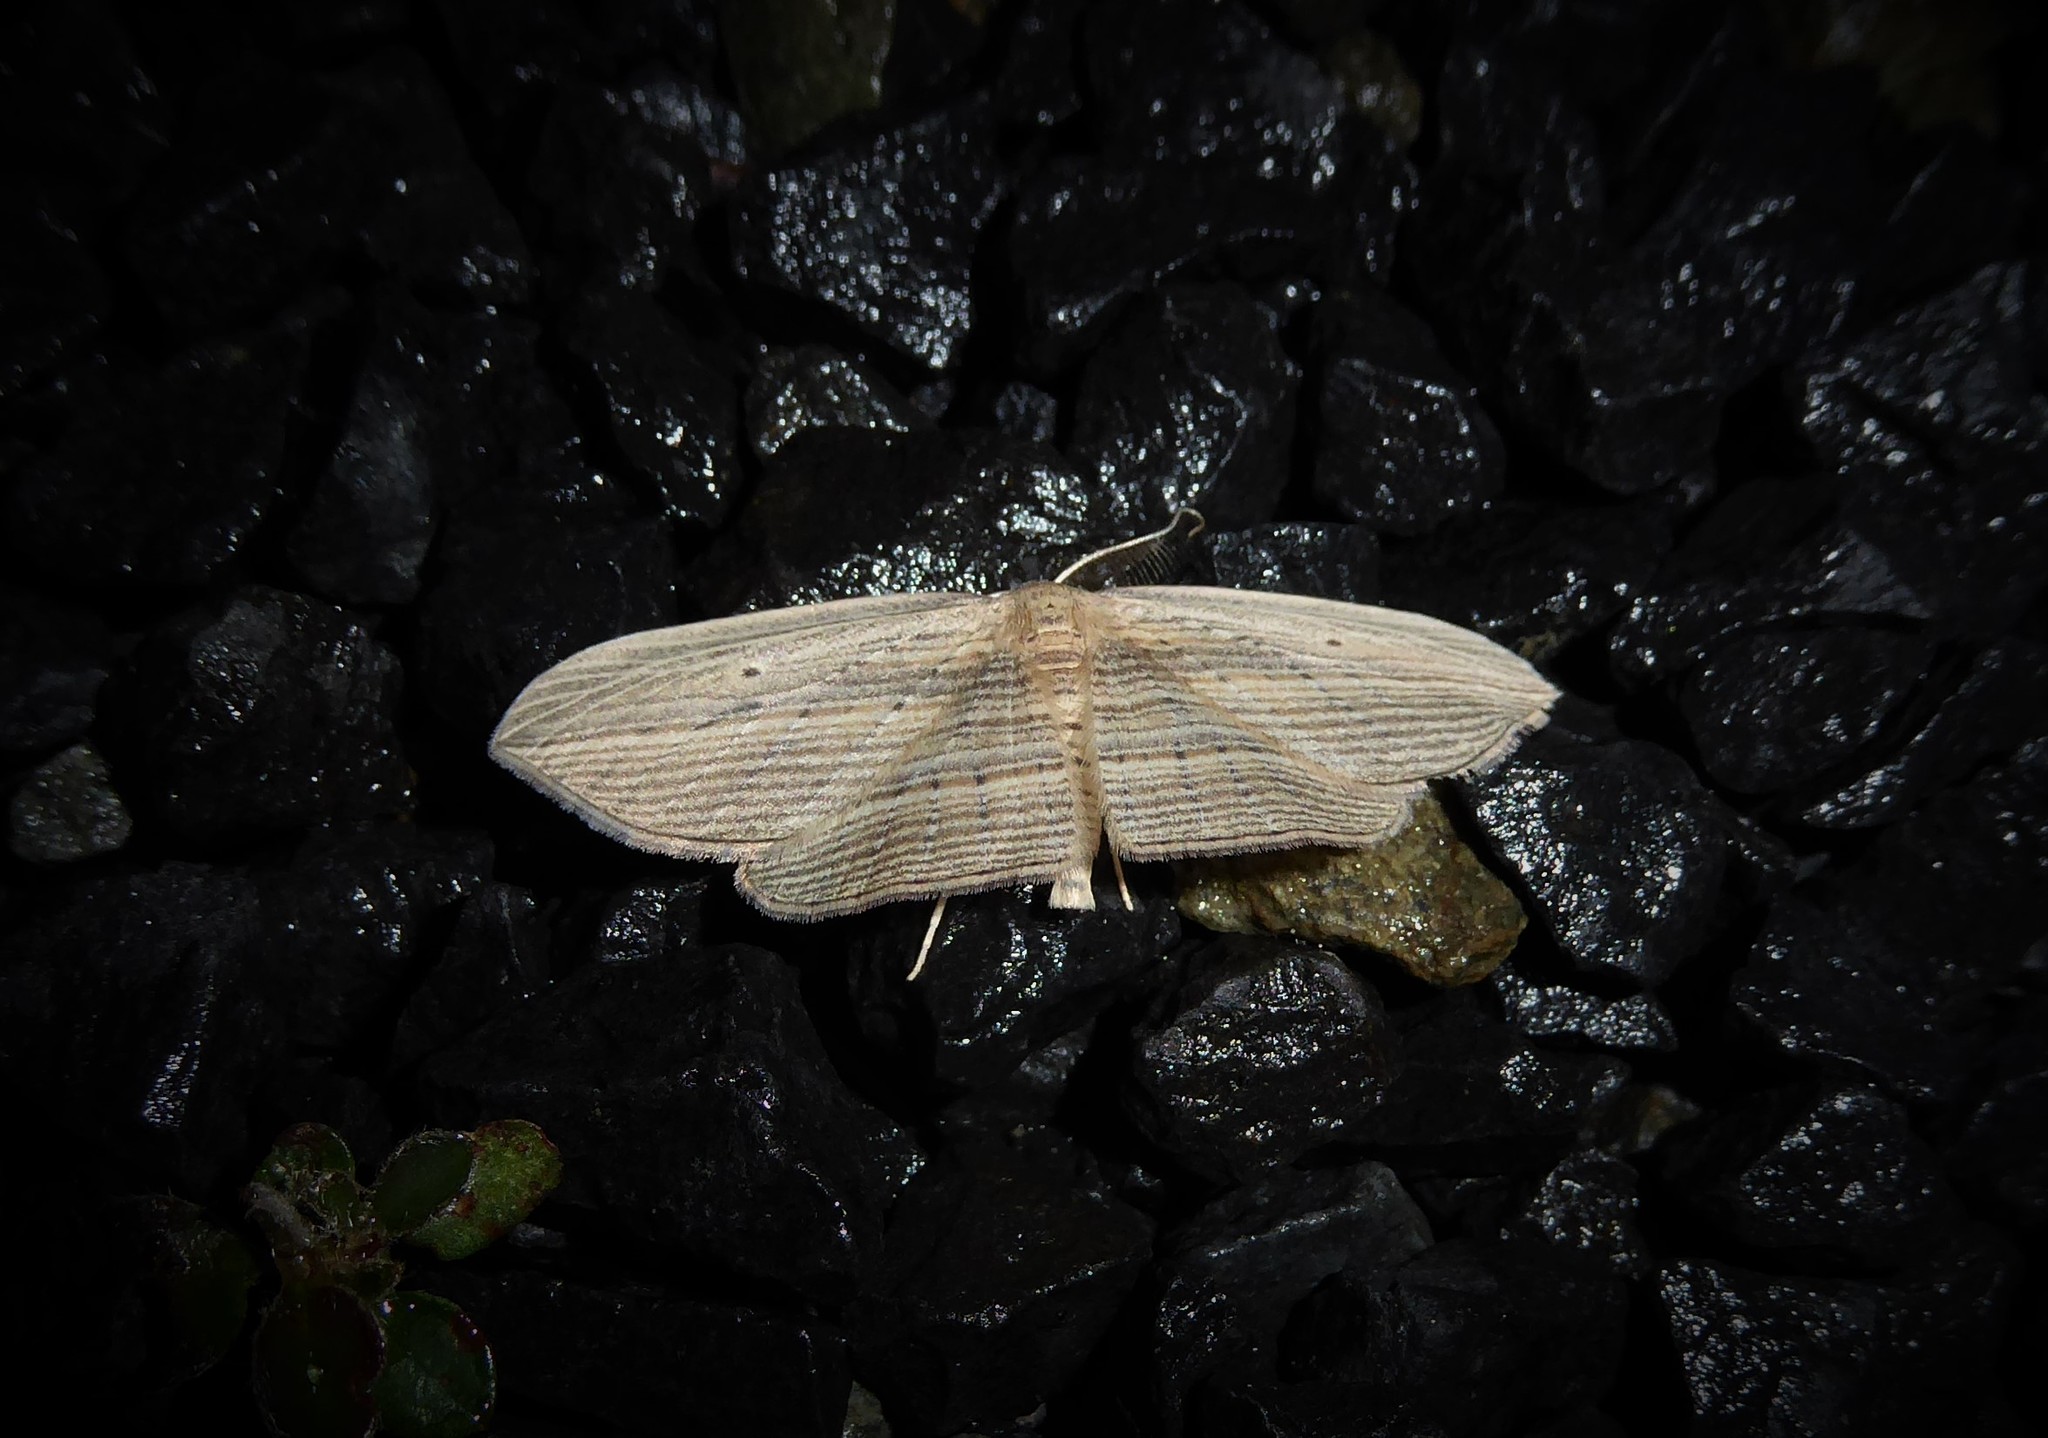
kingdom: Animalia
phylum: Arthropoda
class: Insecta
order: Lepidoptera
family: Geometridae
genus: Epiphryne
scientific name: Epiphryne verriculata
